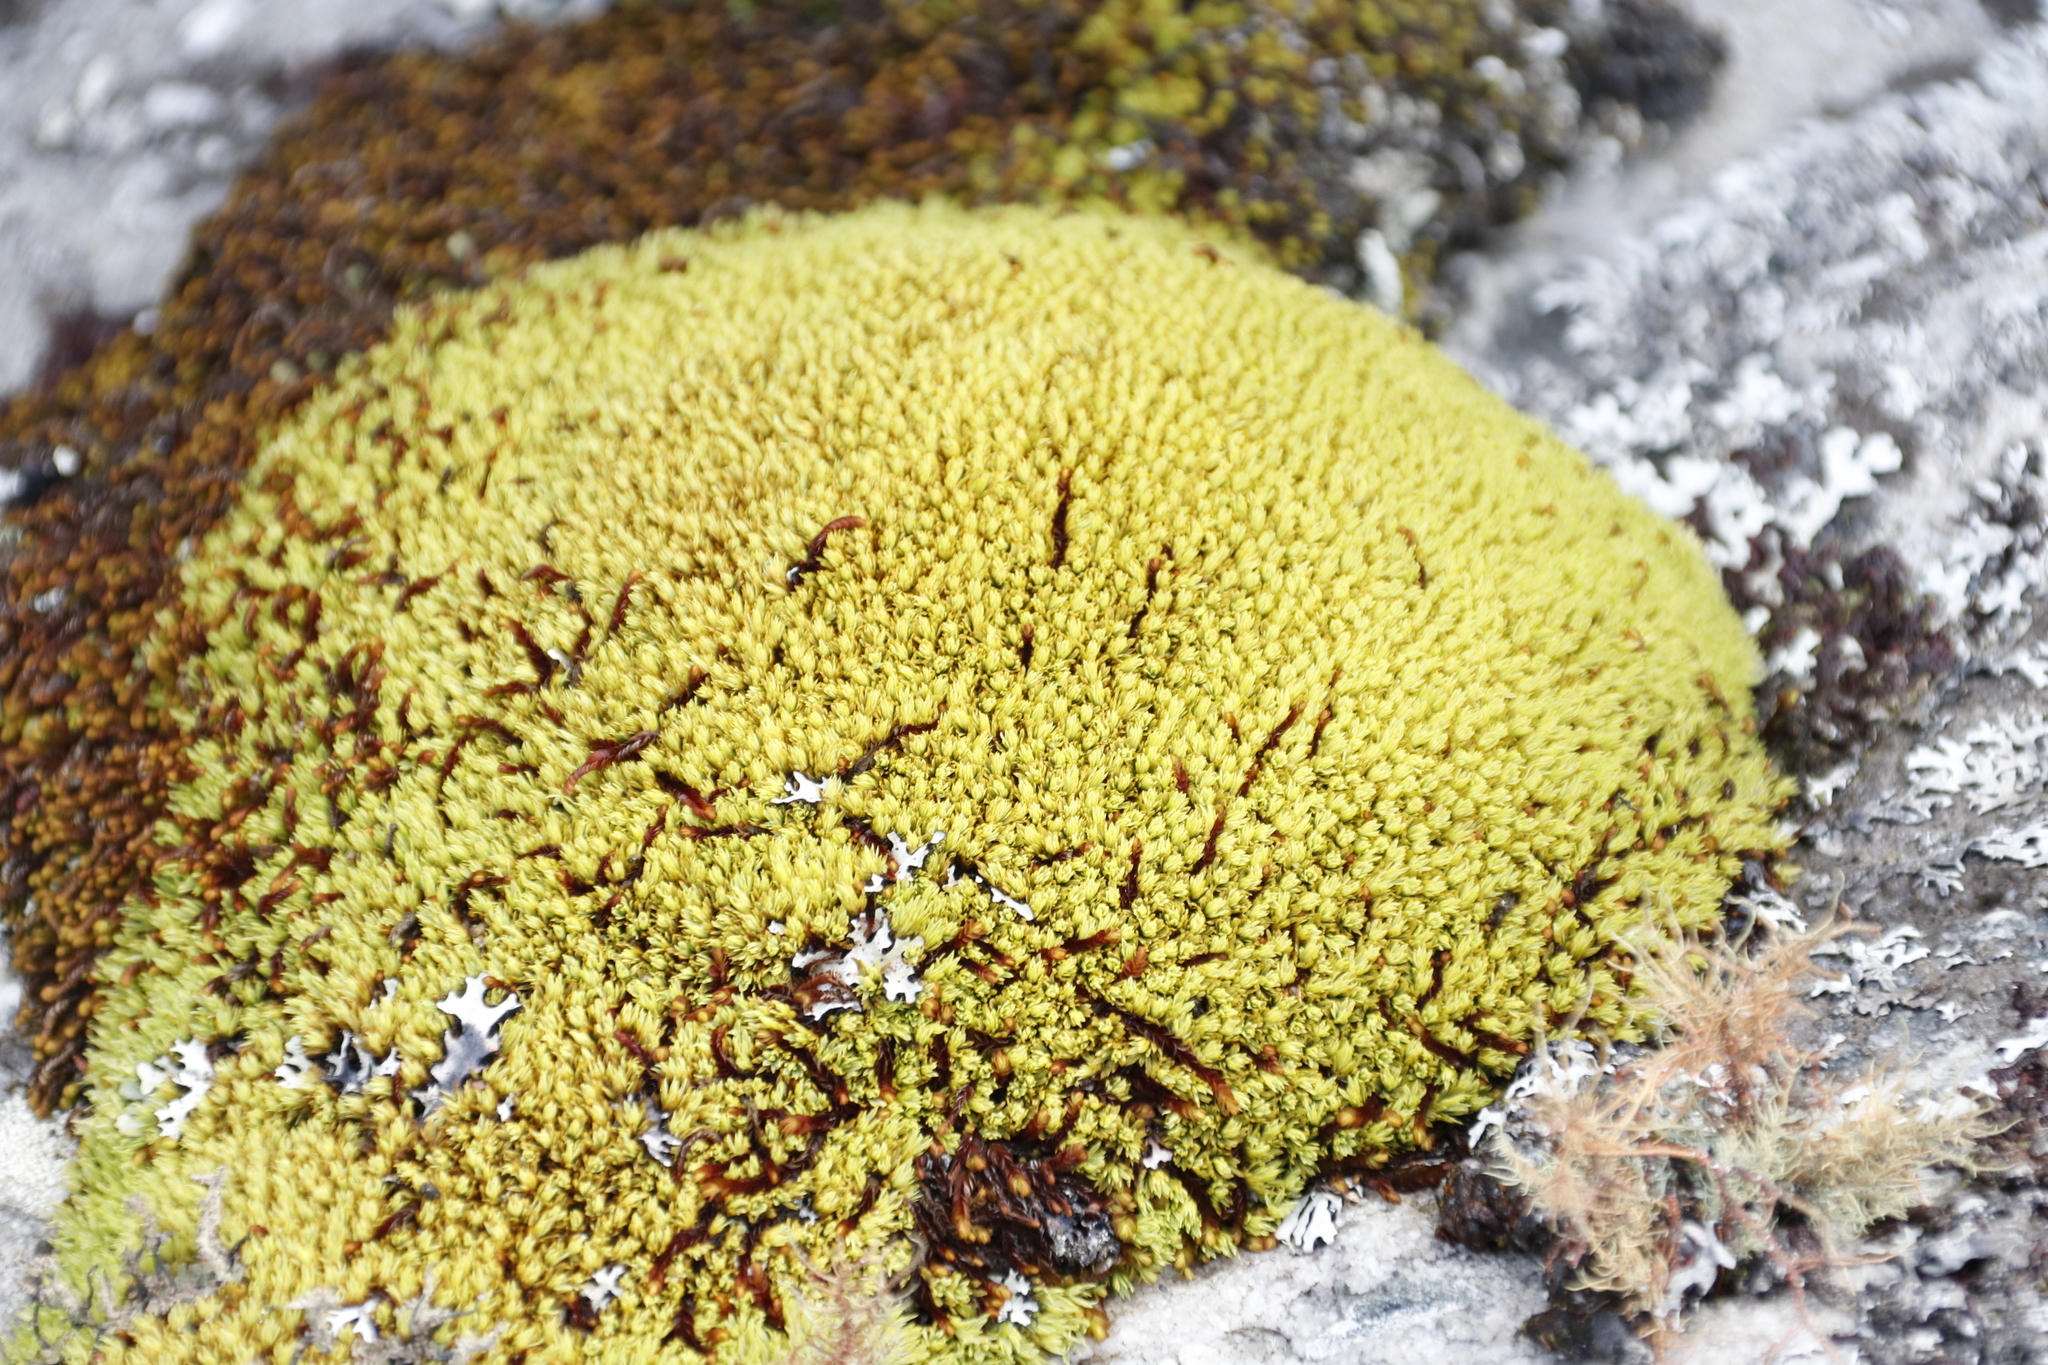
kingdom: Plantae
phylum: Bryophyta
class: Bryopsida
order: Dicranales
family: Hypodontiaceae
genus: Hypodontium
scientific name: Hypodontium pomiforme
